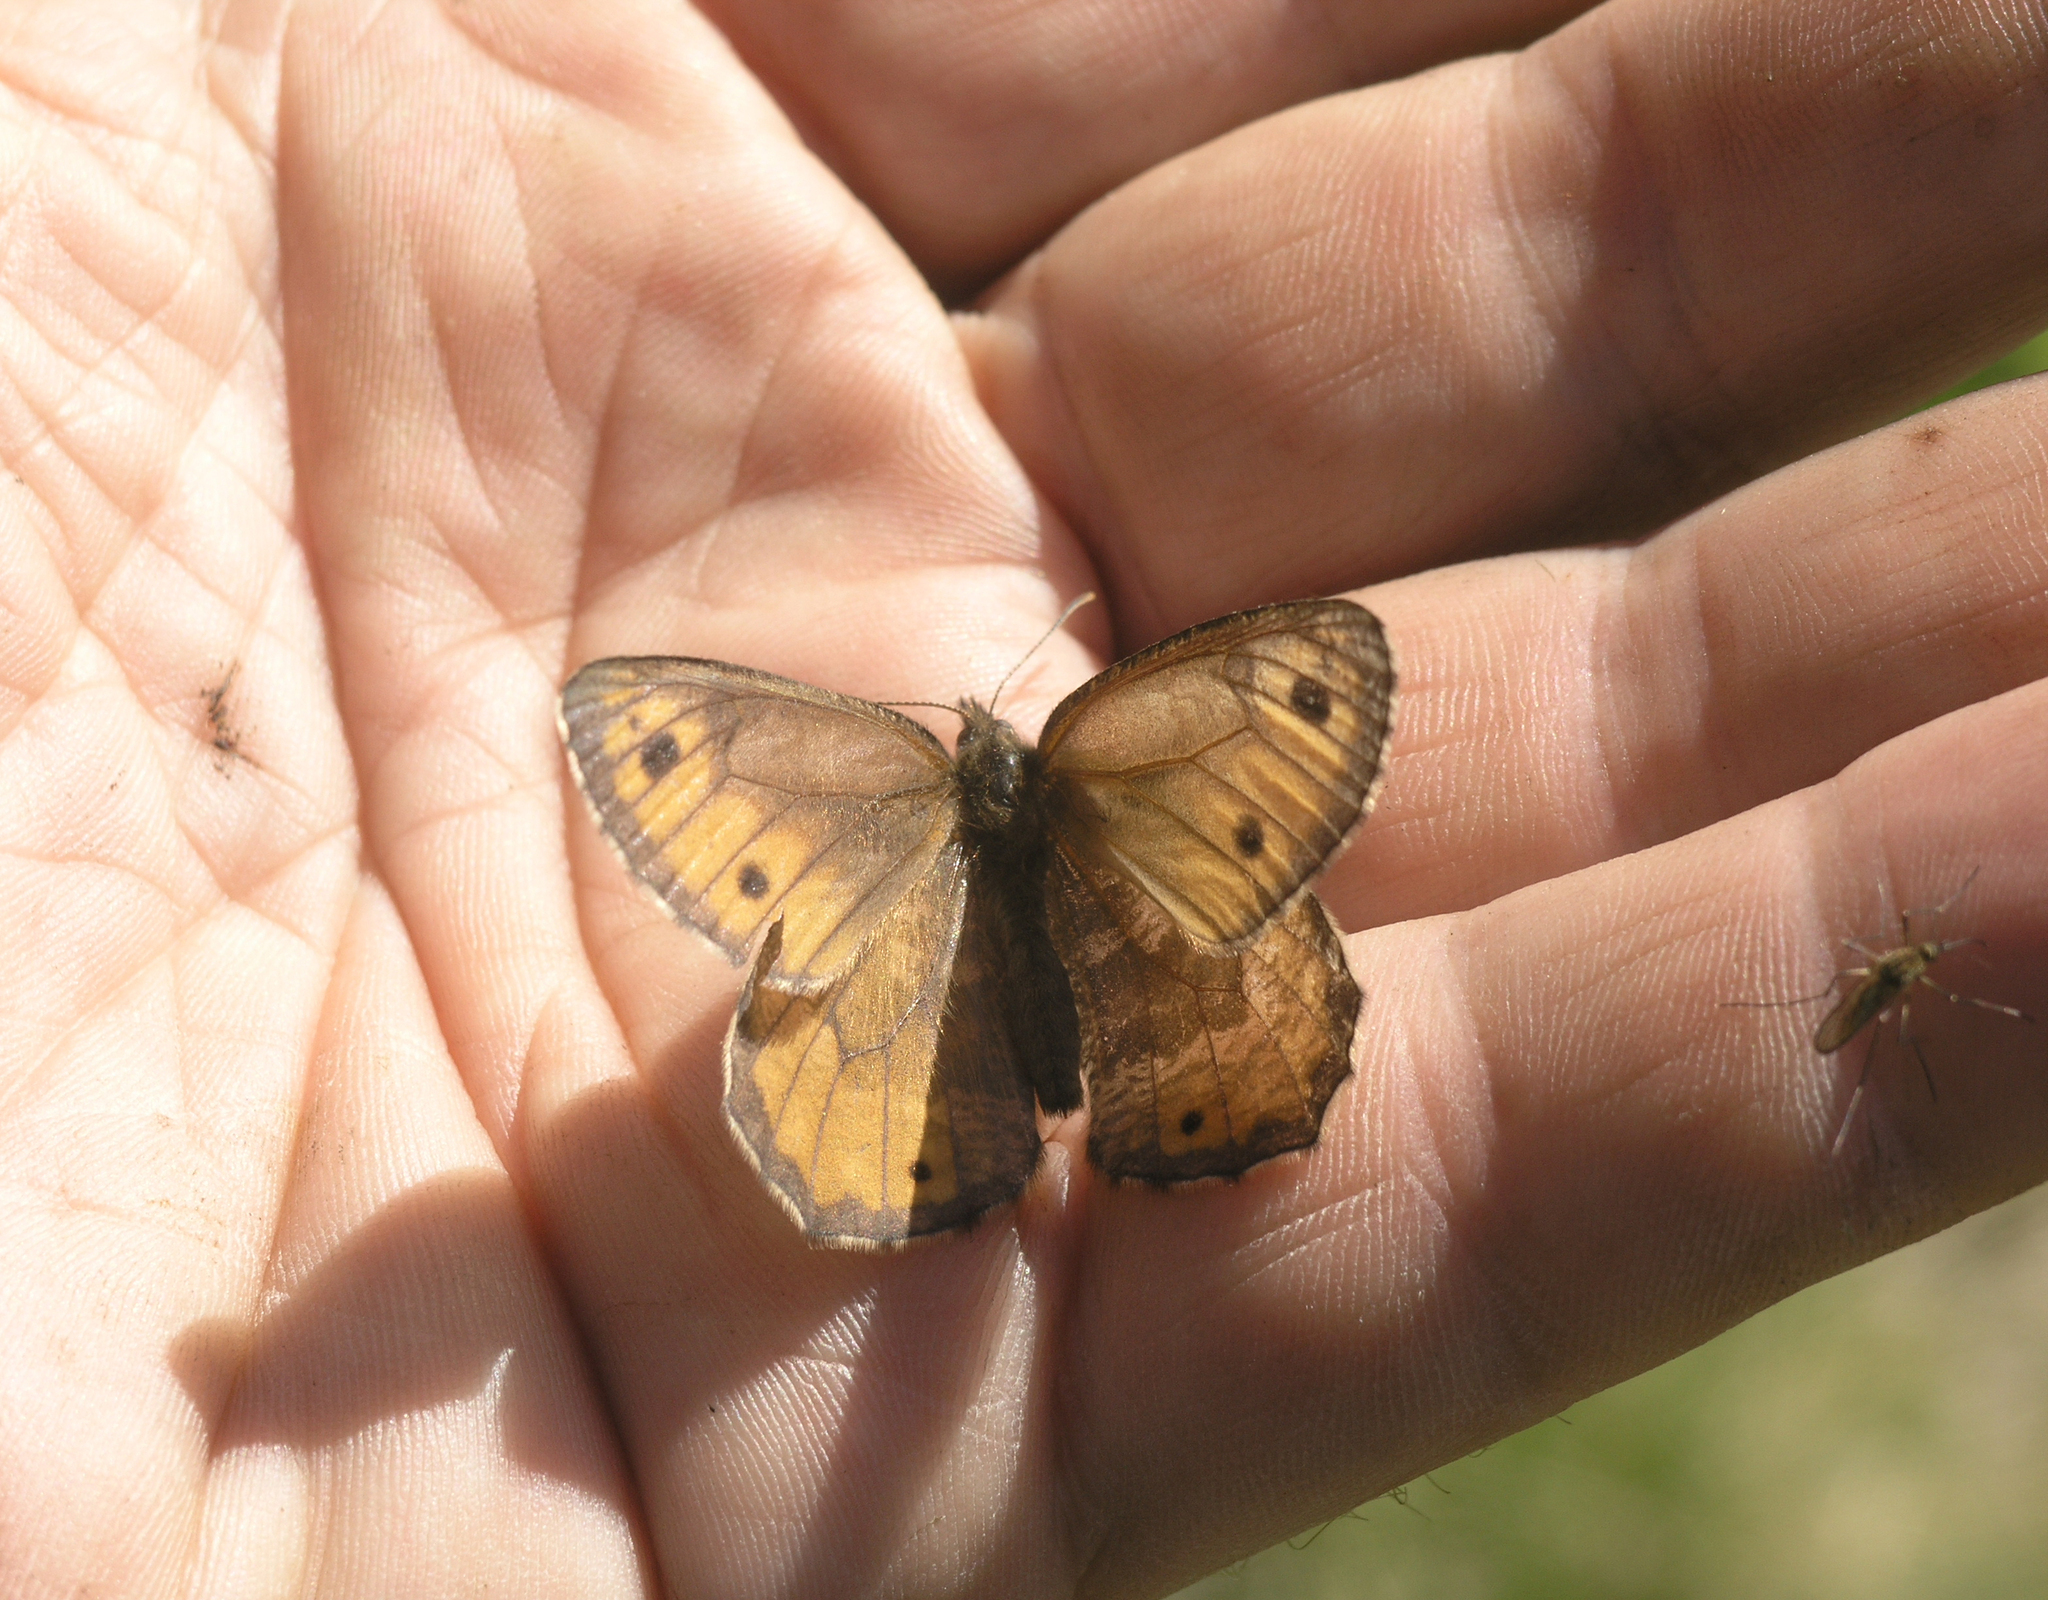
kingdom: Animalia
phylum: Arthropoda
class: Insecta
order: Lepidoptera
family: Nymphalidae
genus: Oeneis
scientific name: Oeneis norna
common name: Norse grayling
